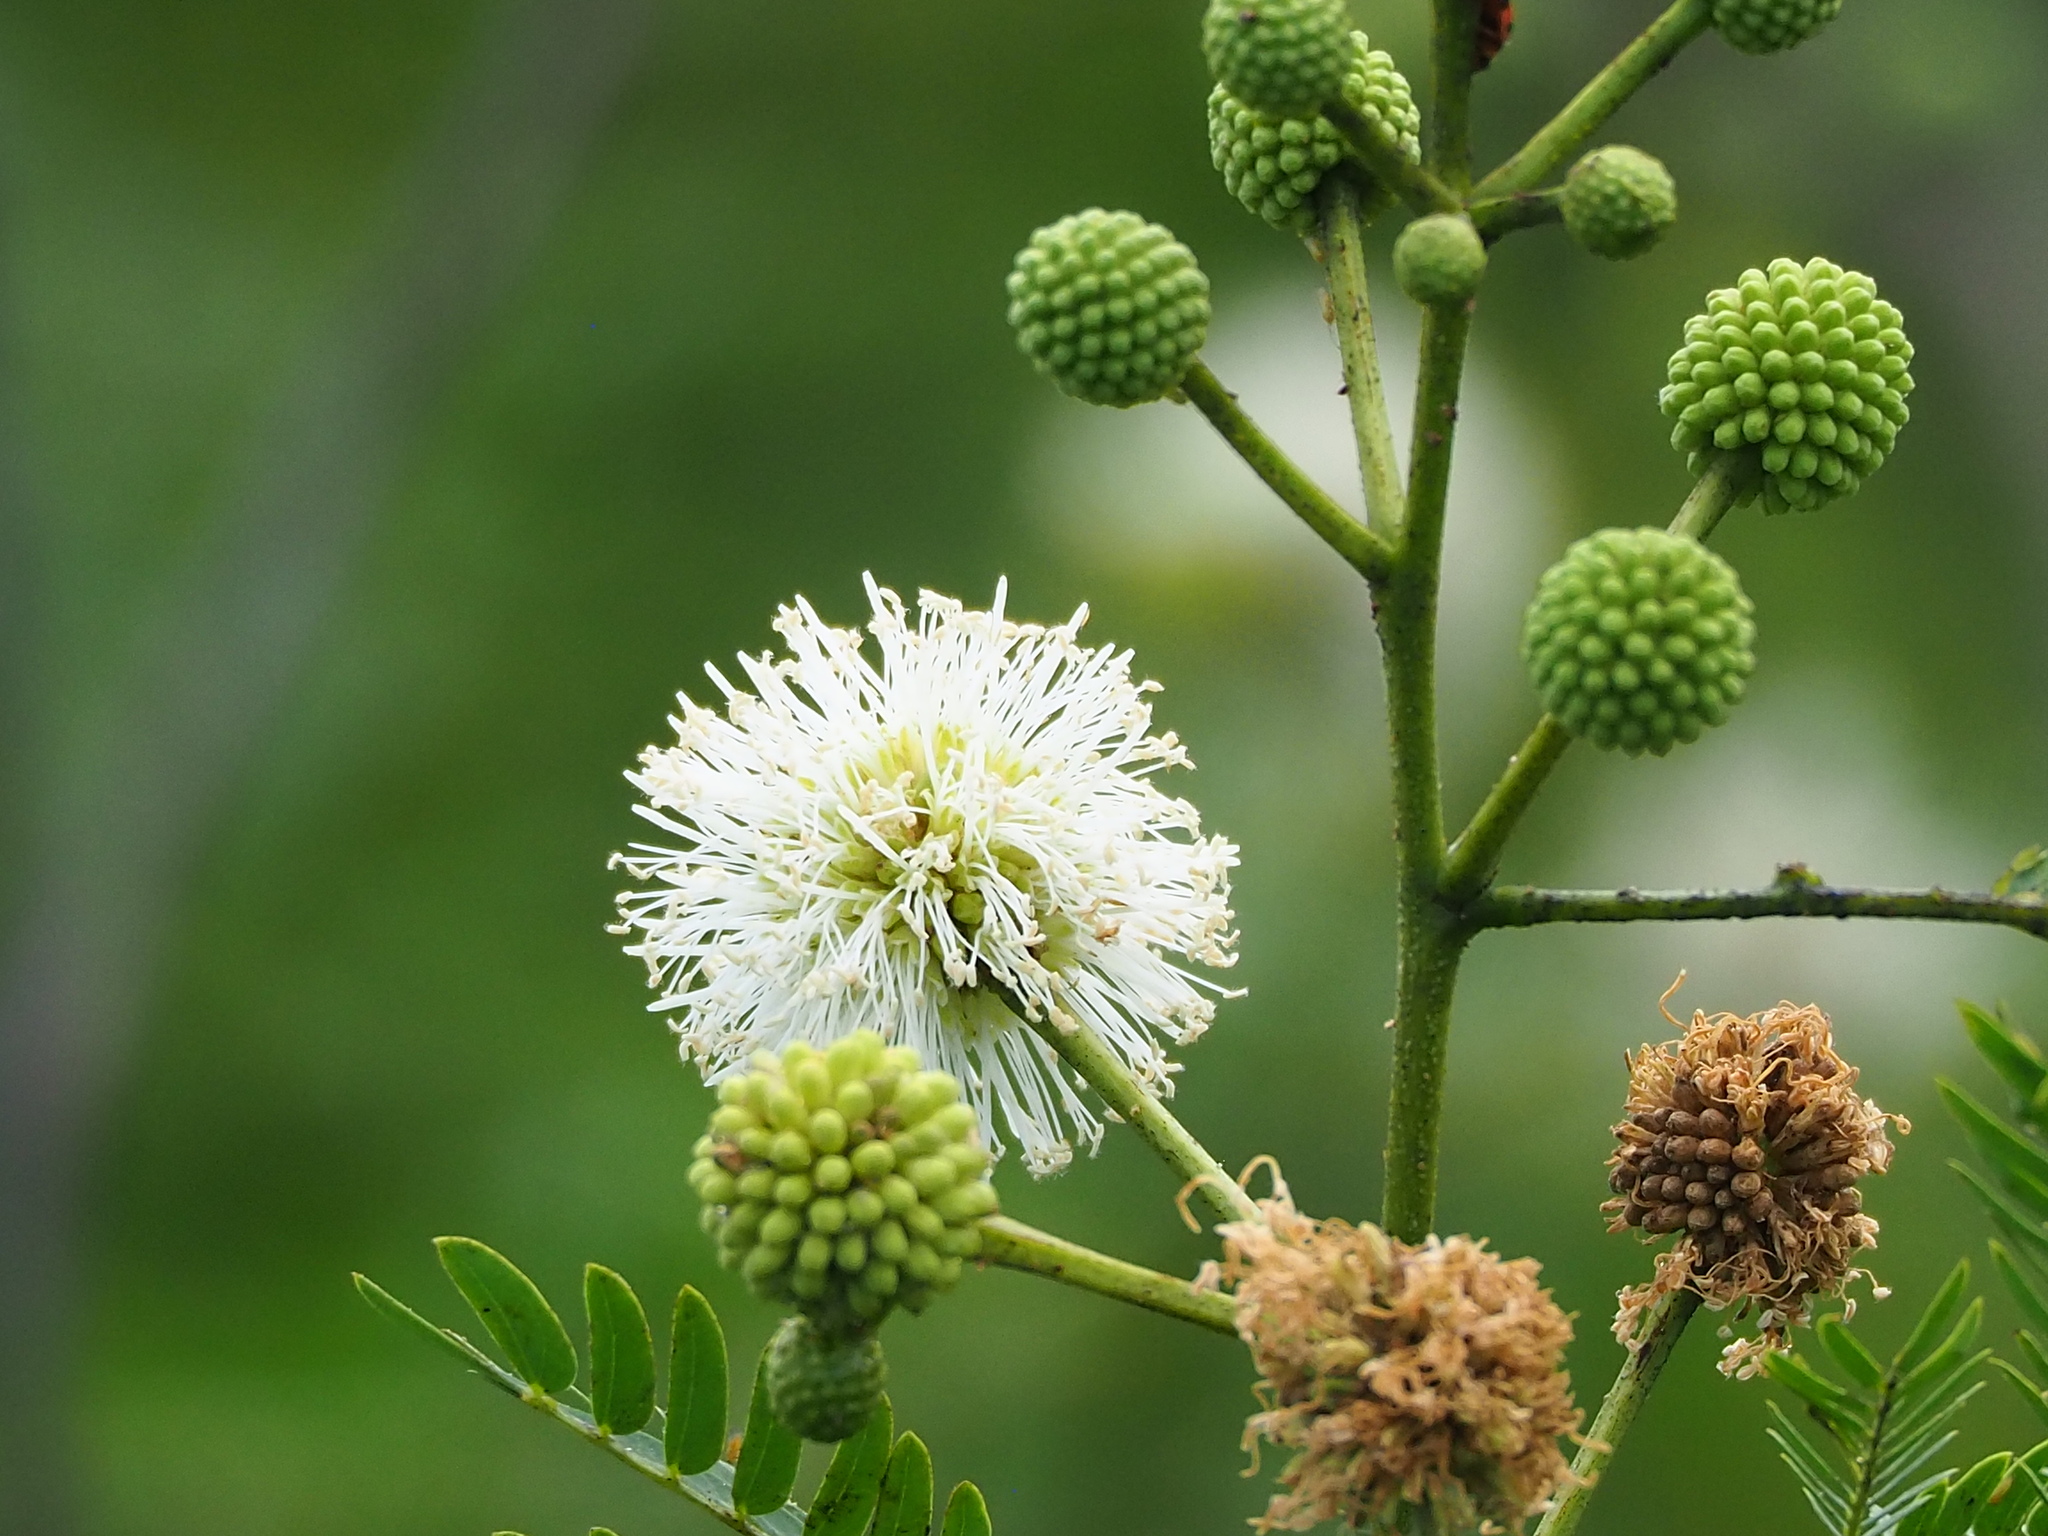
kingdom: Plantae
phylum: Tracheophyta
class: Magnoliopsida
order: Fabales
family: Fabaceae
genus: Leucaena
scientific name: Leucaena leucocephala
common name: White leadtree
